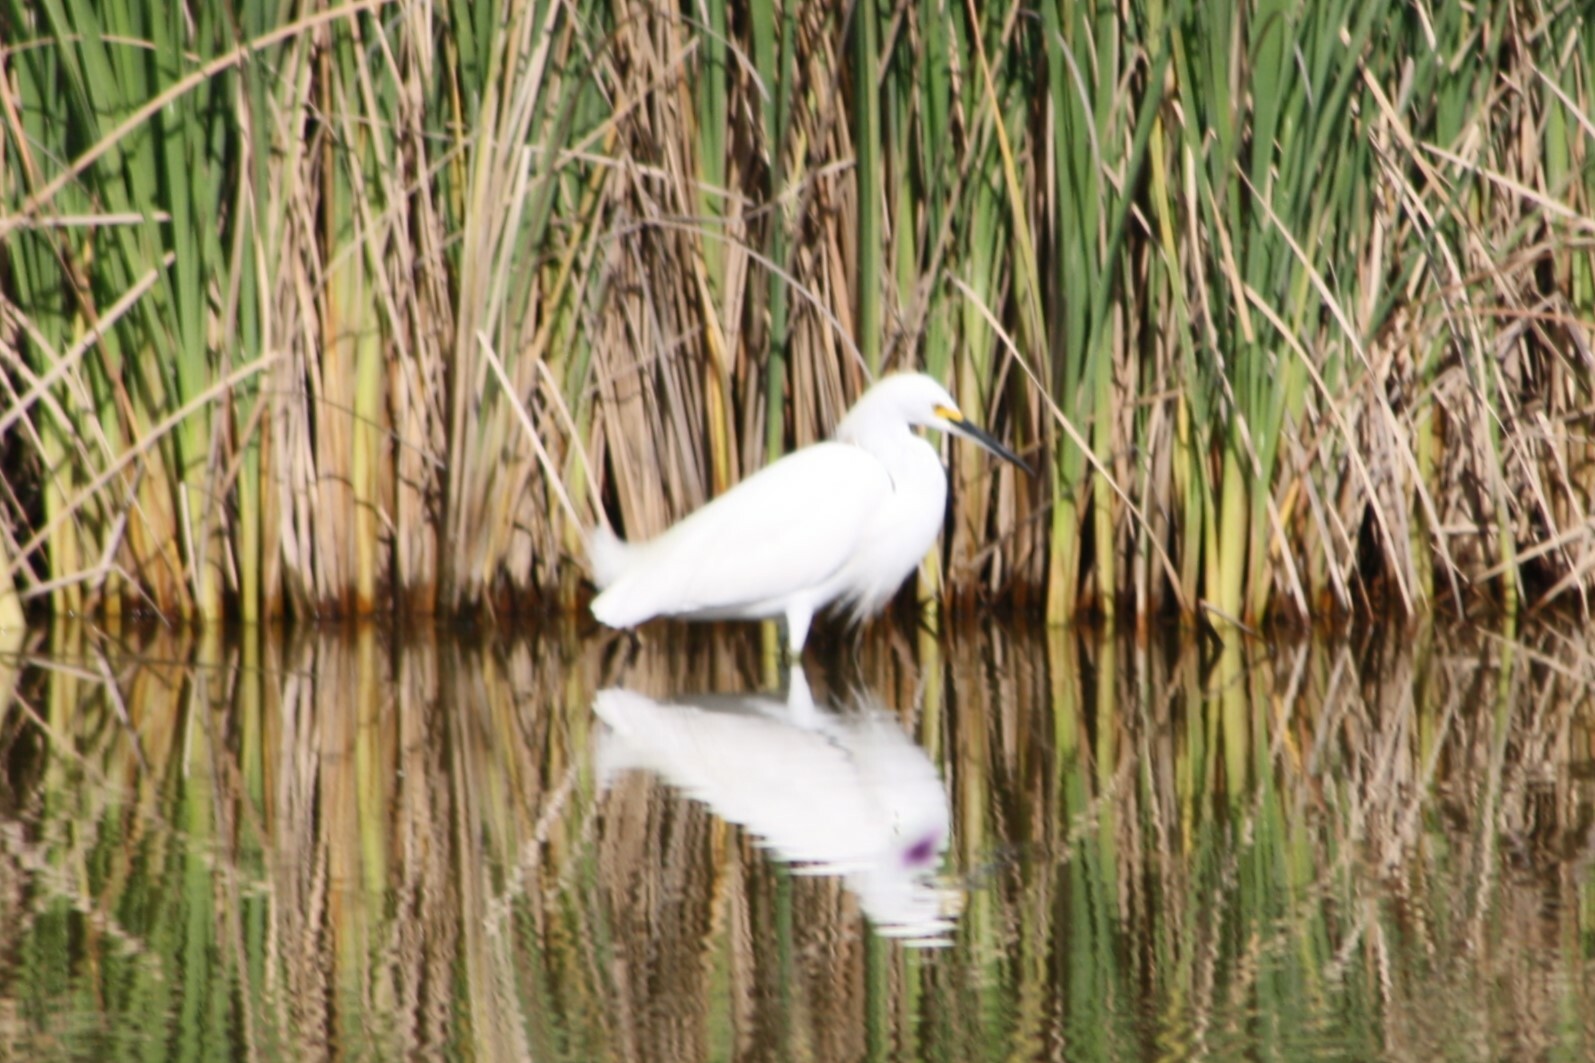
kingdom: Animalia
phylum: Chordata
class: Aves
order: Pelecaniformes
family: Ardeidae
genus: Egretta
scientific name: Egretta thula
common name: Snowy egret
